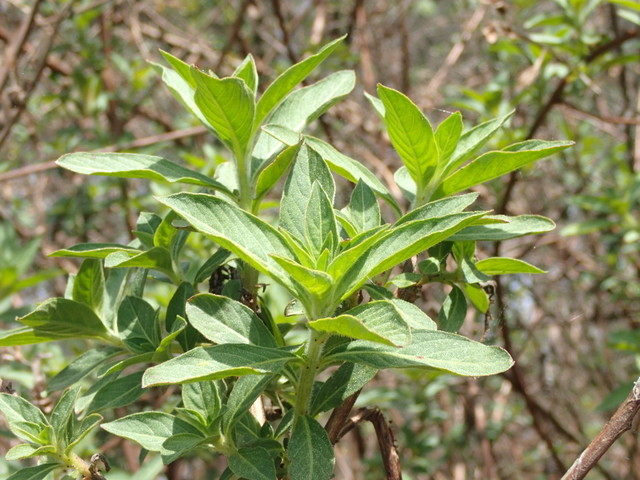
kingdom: Plantae
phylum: Tracheophyta
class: Magnoliopsida
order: Myrtales
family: Onagraceae
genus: Ludwigia
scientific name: Ludwigia peruviana
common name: Peruvian primrose-willow
